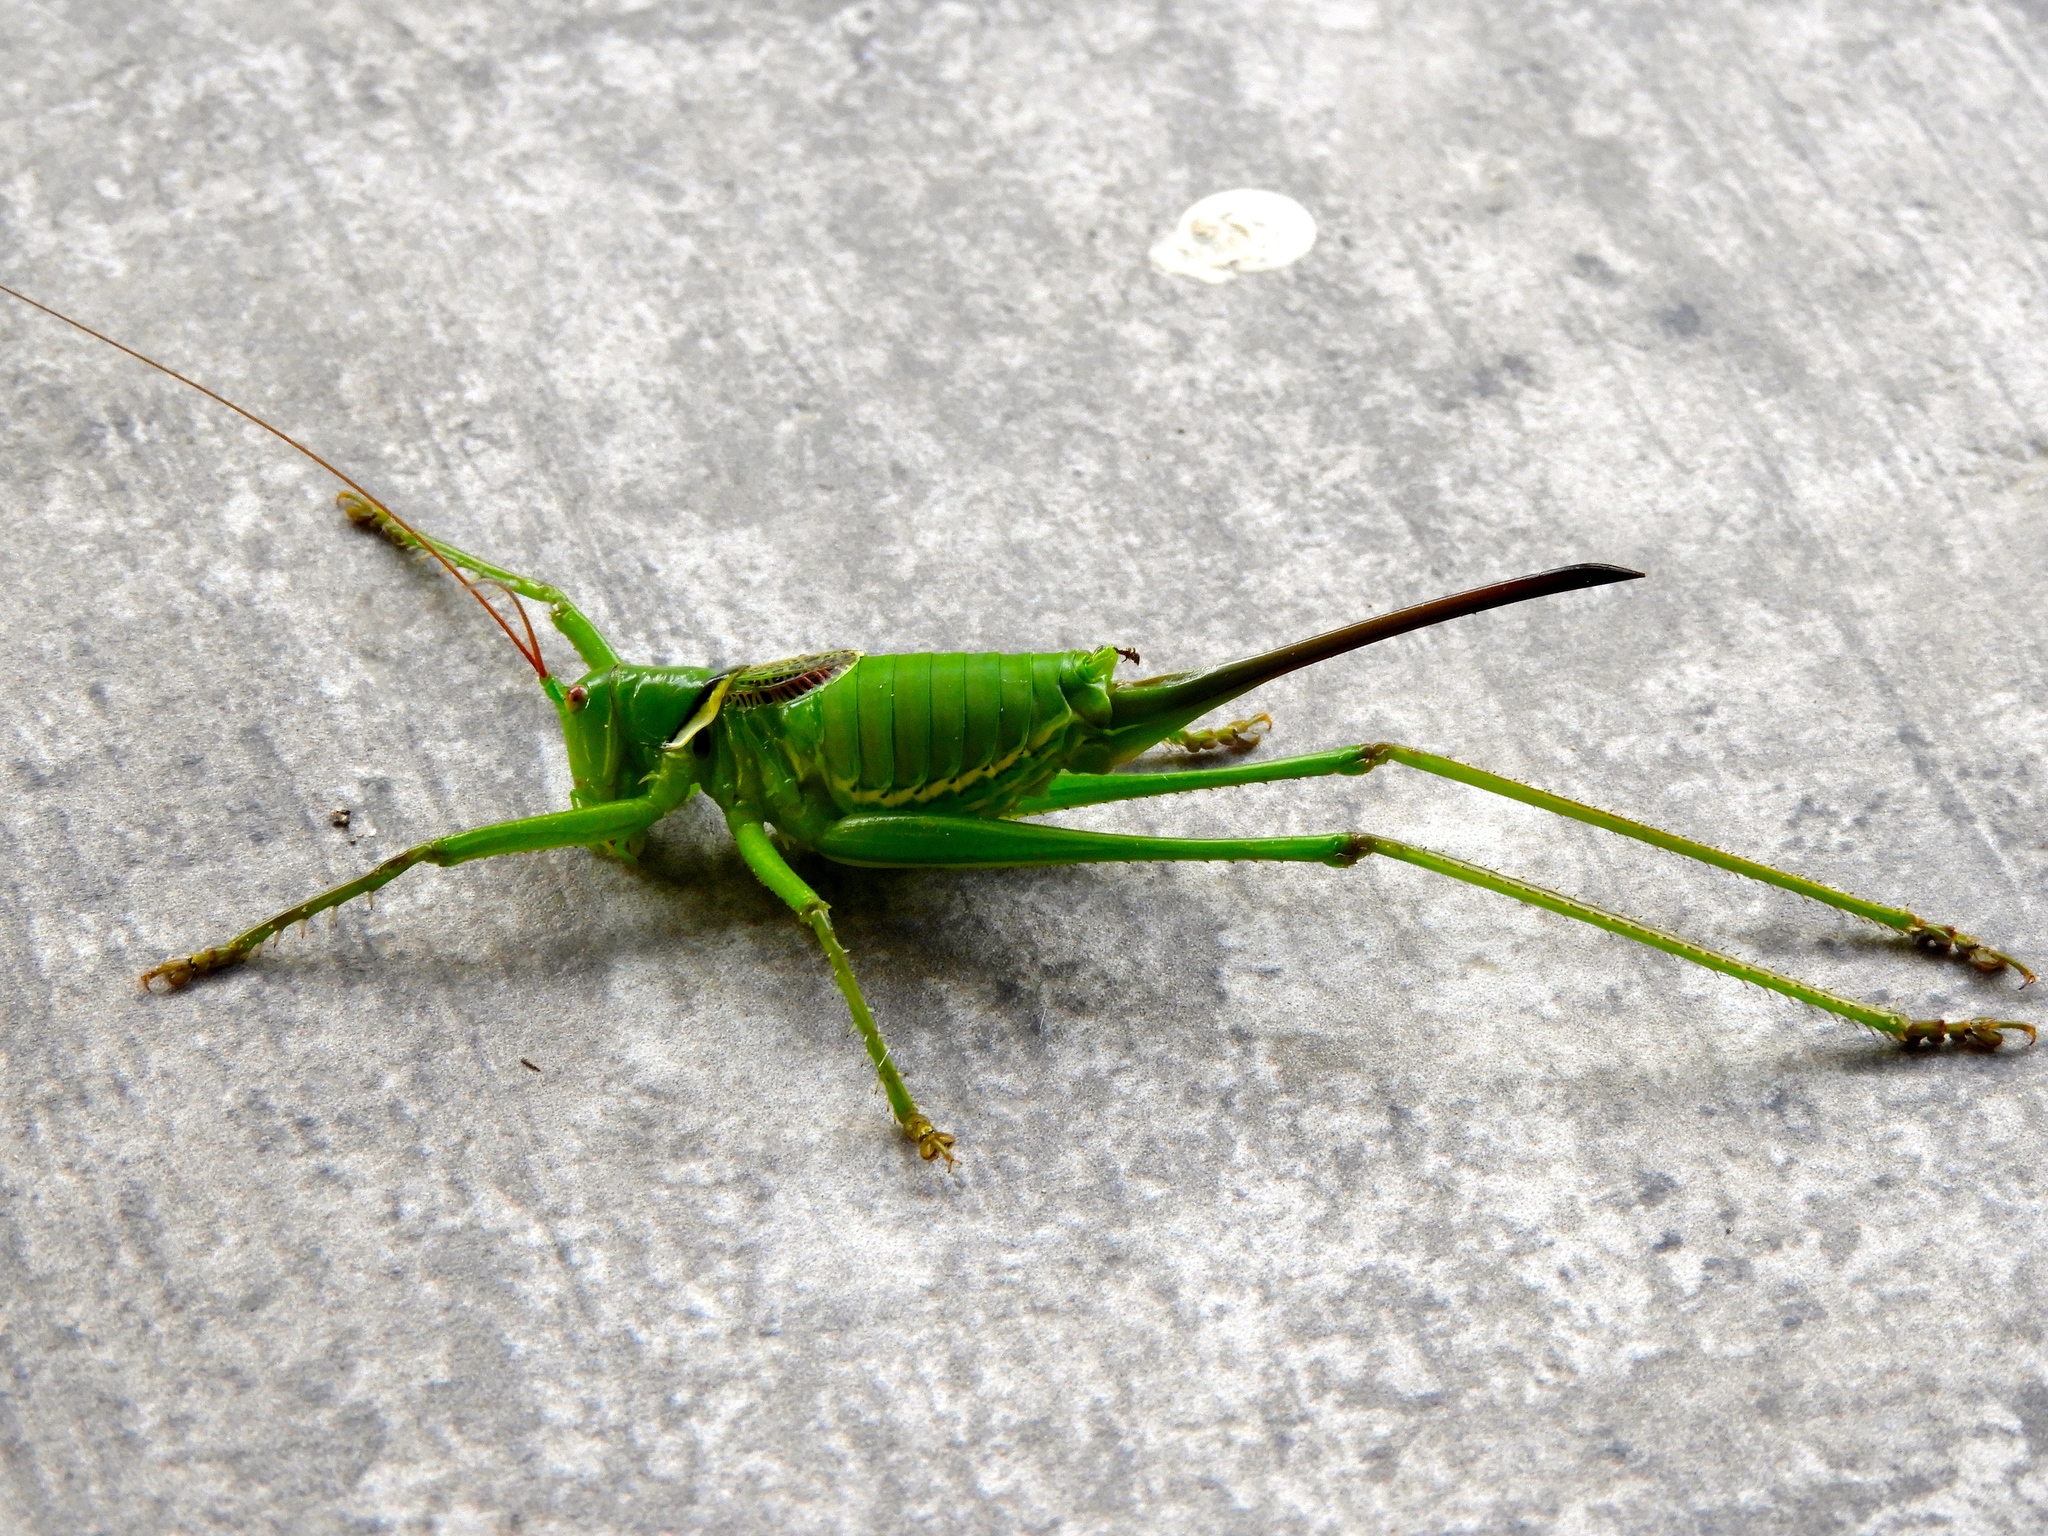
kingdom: Animalia
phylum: Arthropoda
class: Insecta
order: Orthoptera
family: Tettigoniidae
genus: Neobarrettia
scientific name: Neobarrettia sinaloae
